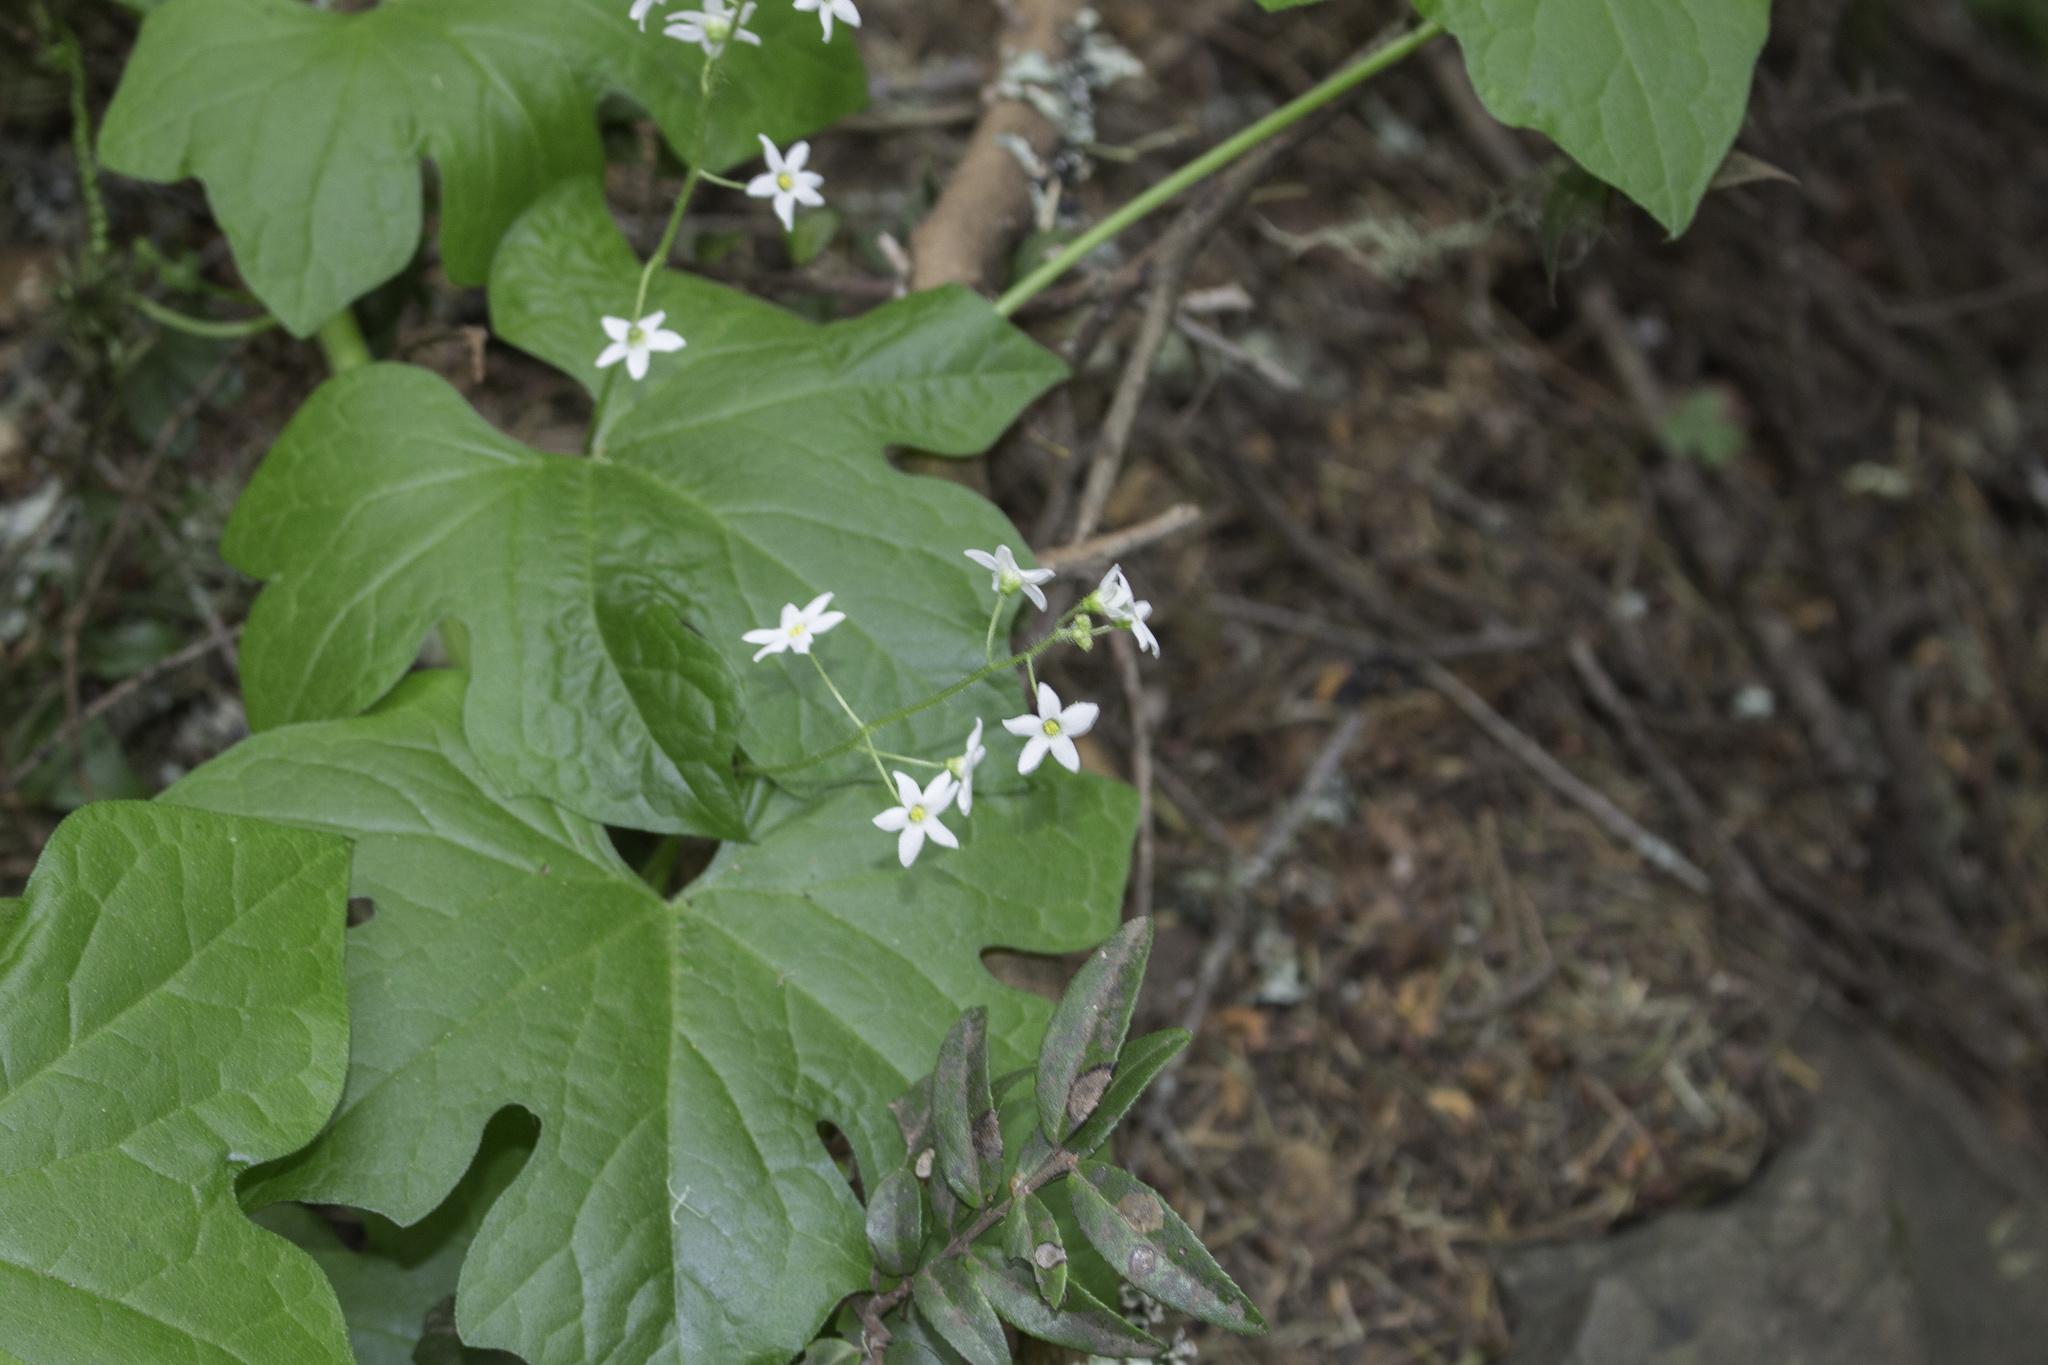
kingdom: Plantae
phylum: Tracheophyta
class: Magnoliopsida
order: Cucurbitales
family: Cucurbitaceae
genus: Marah
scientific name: Marah oregana
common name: Coastal manroot
